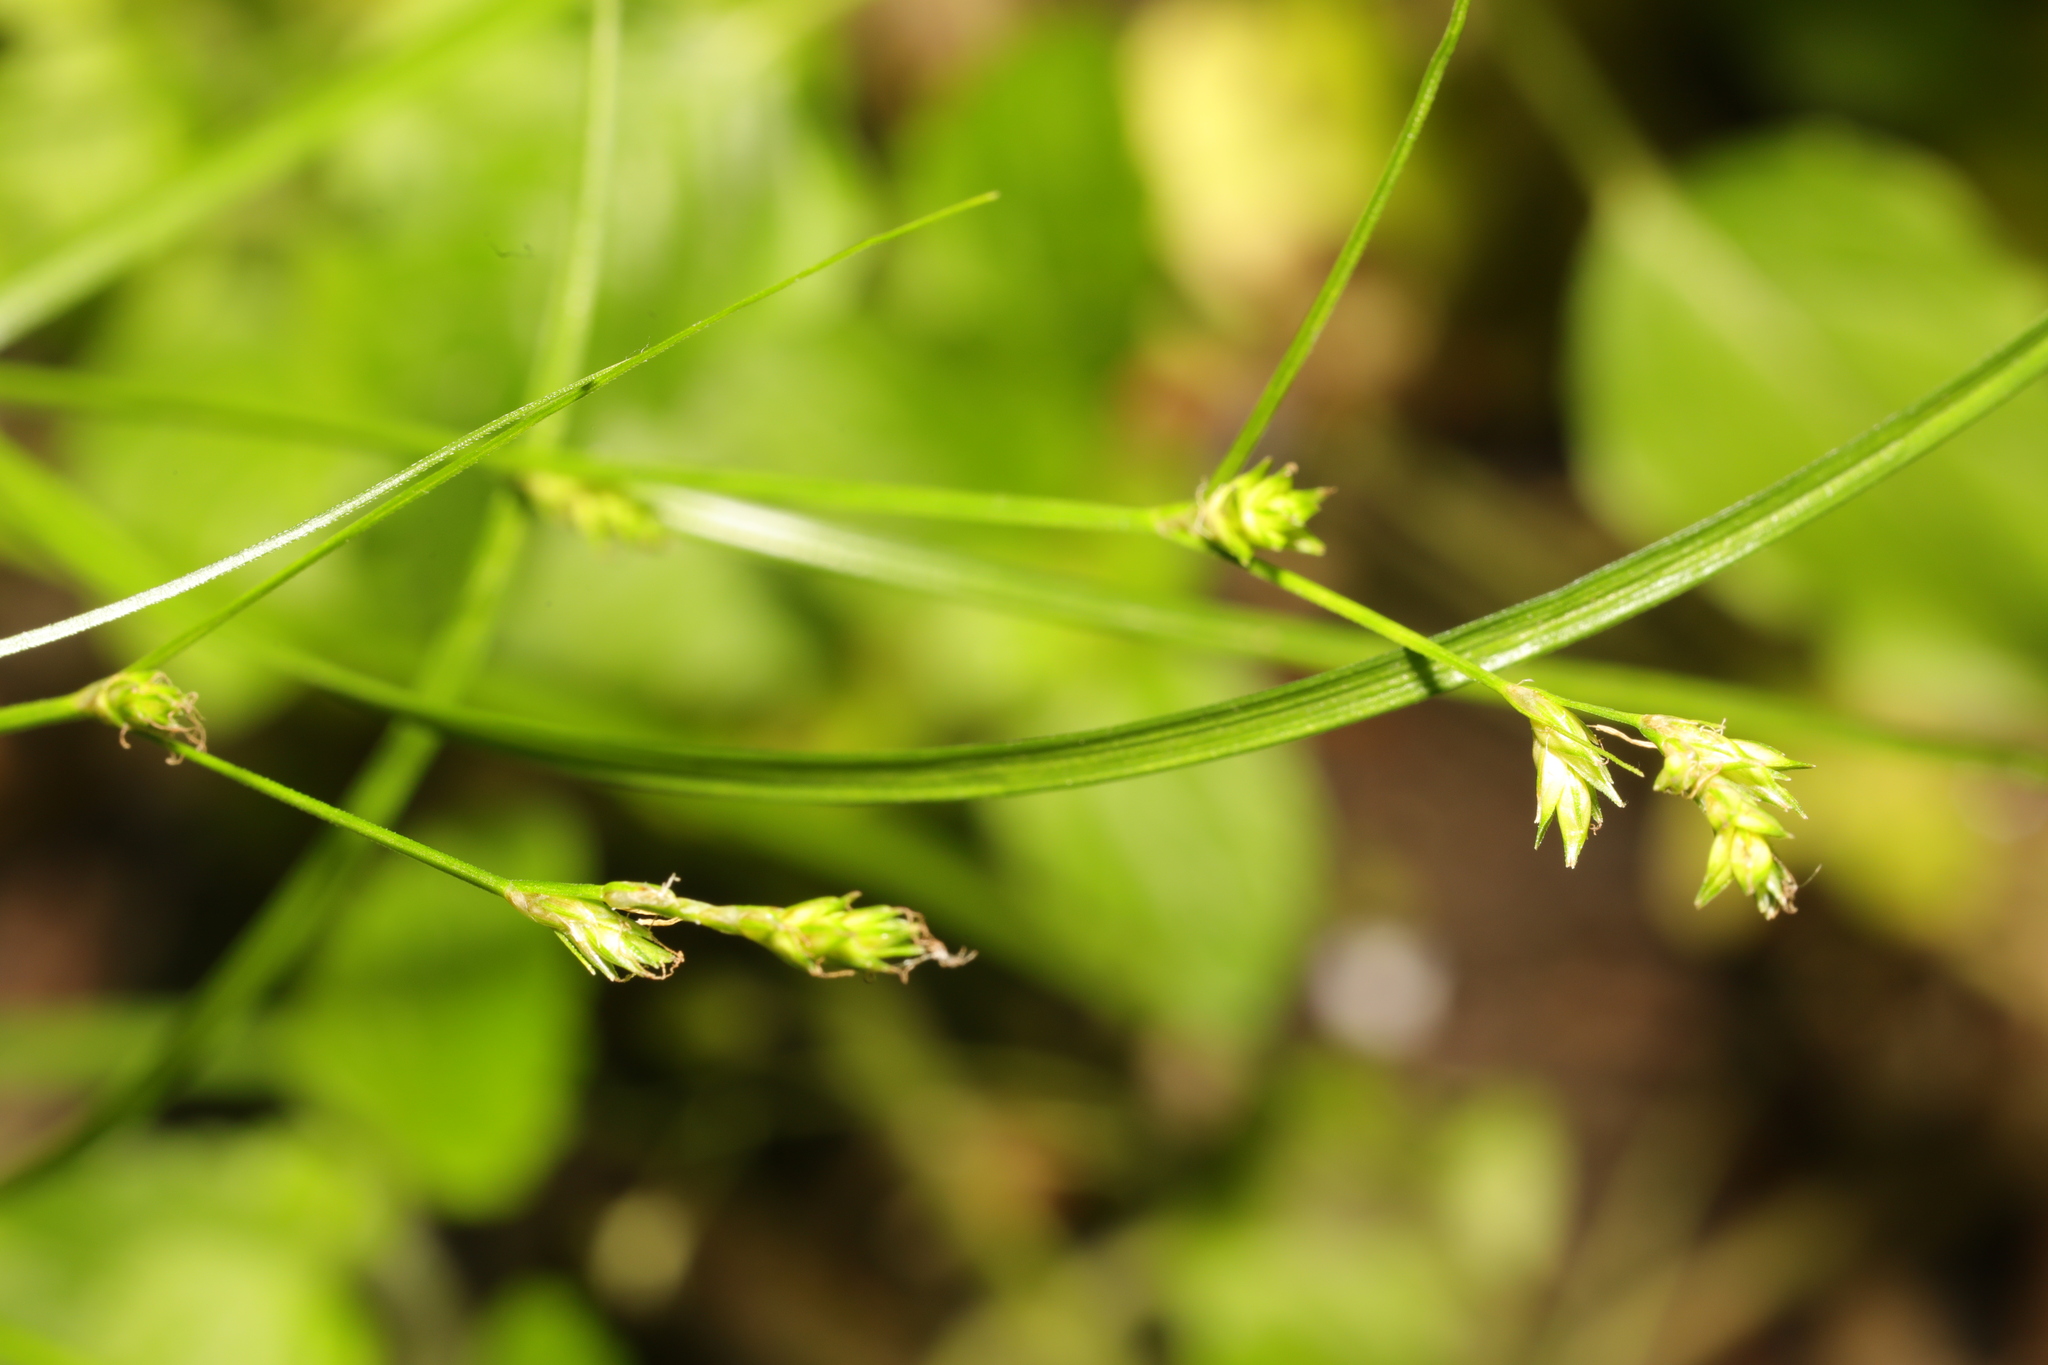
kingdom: Plantae
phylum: Tracheophyta
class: Liliopsida
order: Poales
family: Cyperaceae
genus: Carex
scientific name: Carex remota
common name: Remote sedge
